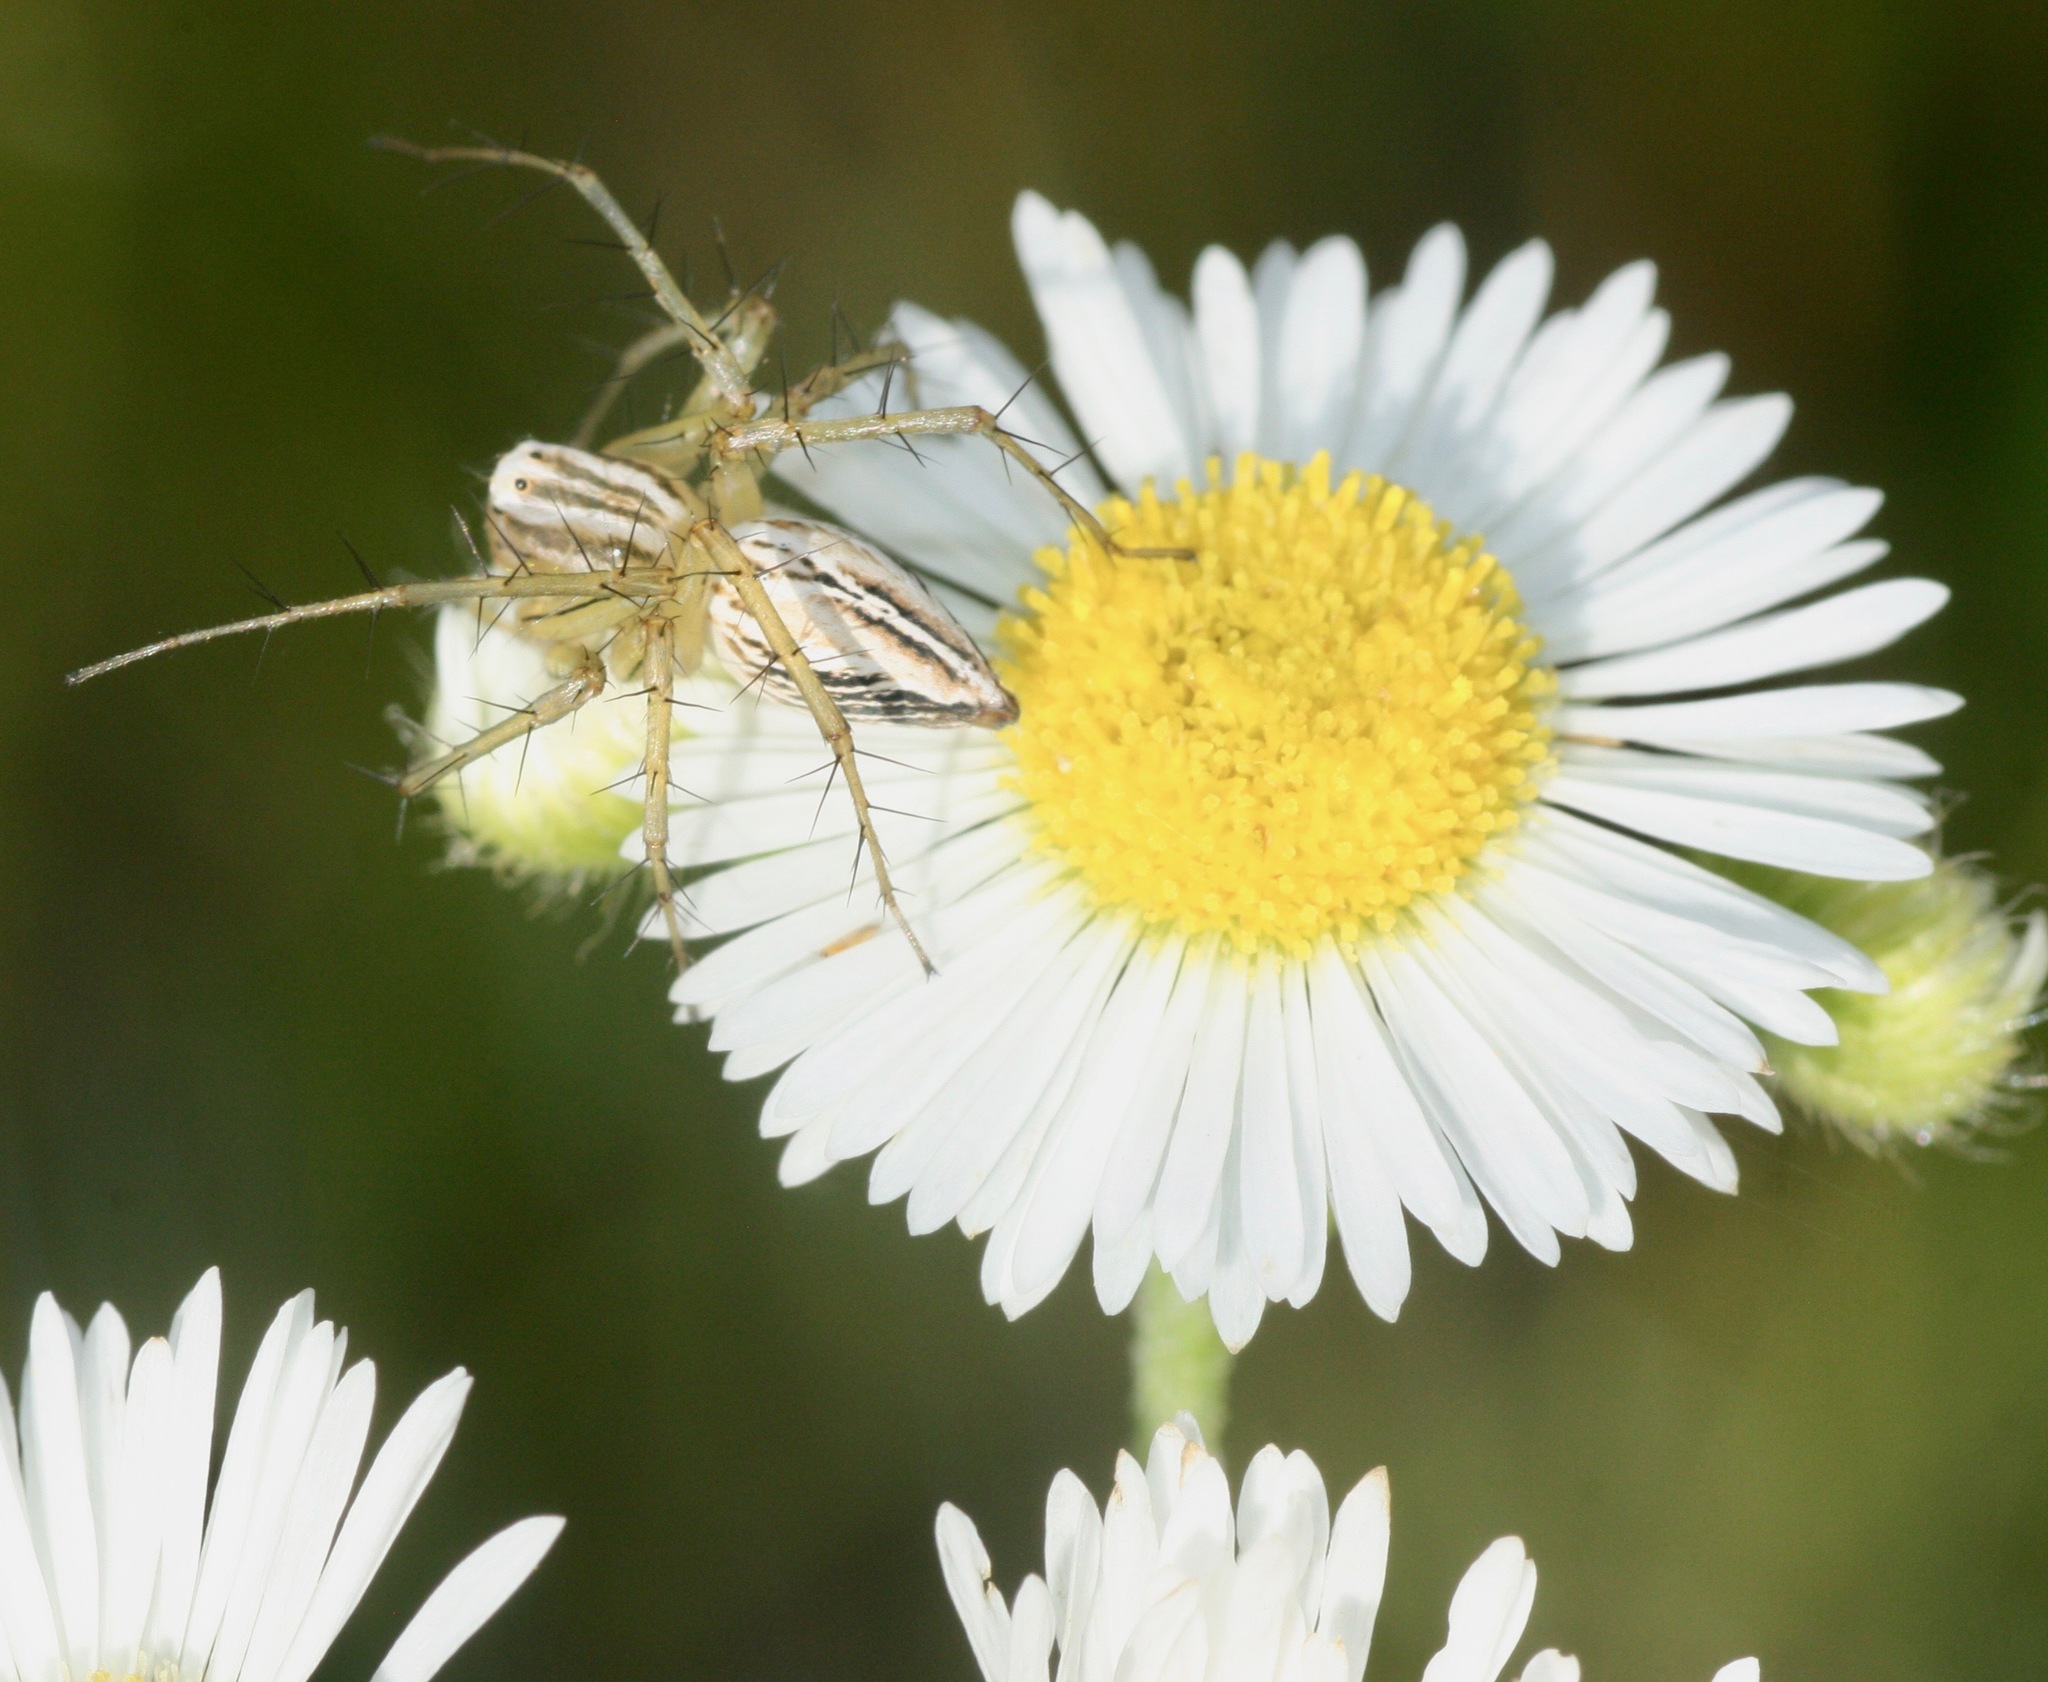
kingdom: Animalia
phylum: Arthropoda
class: Arachnida
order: Araneae
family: Oxyopidae
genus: Oxyopes
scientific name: Oxyopes salticus
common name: Lynx spiders
